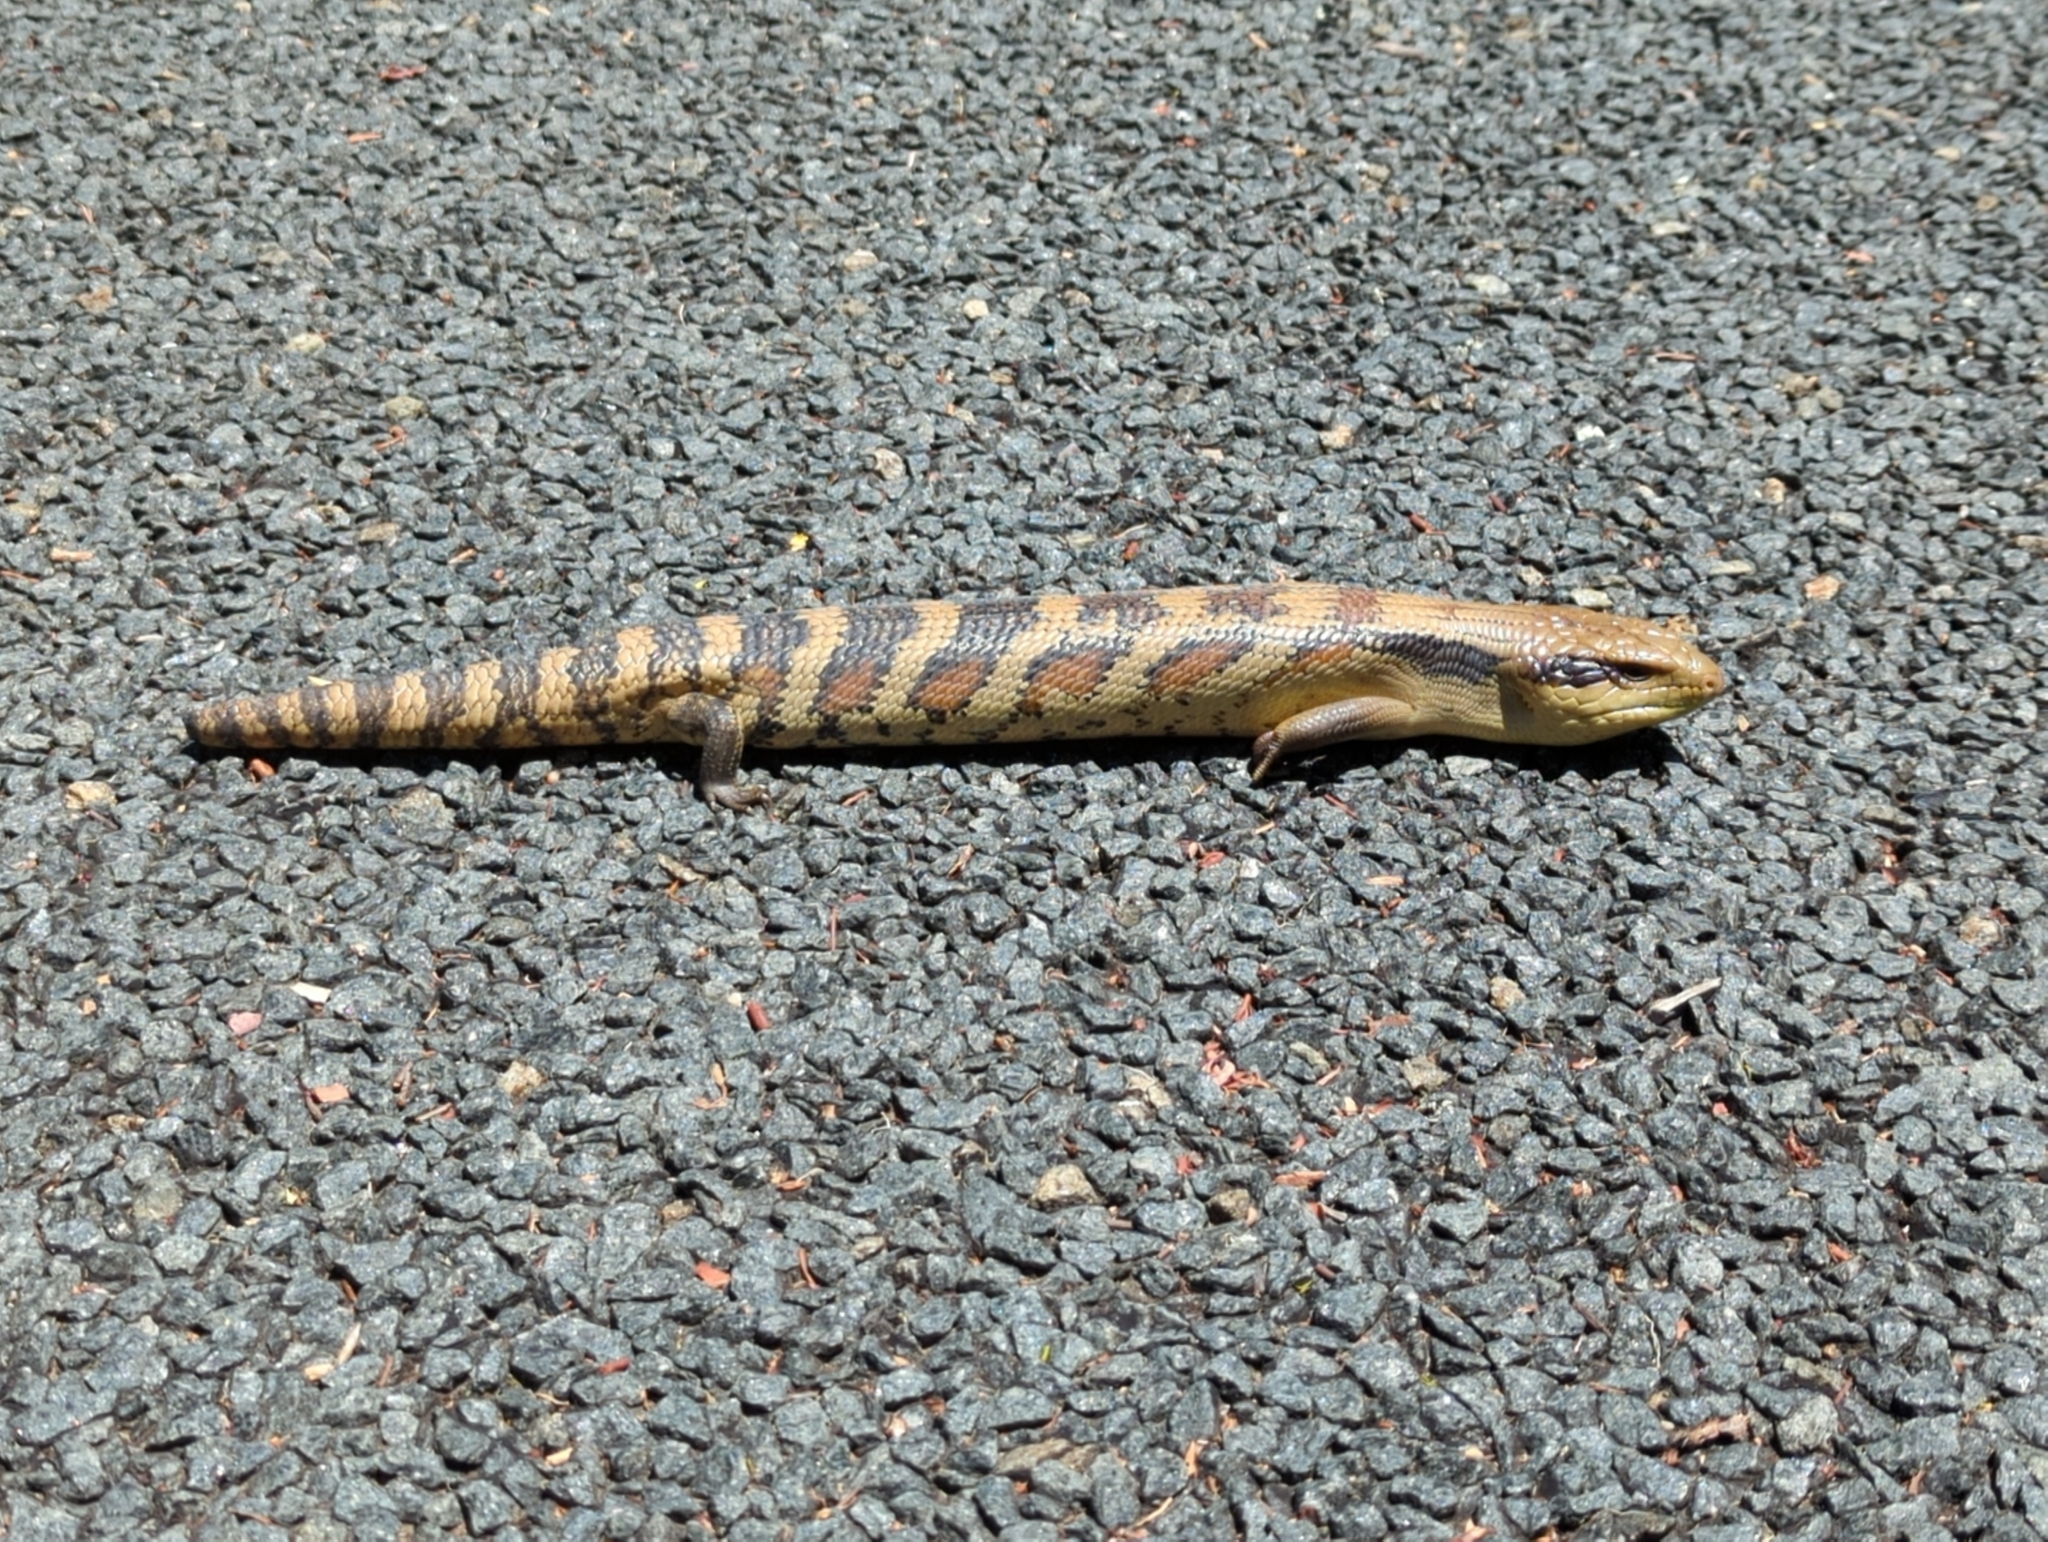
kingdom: Animalia
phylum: Chordata
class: Squamata
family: Scincidae
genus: Tiliqua
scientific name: Tiliqua scincoides
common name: Common bluetongue
